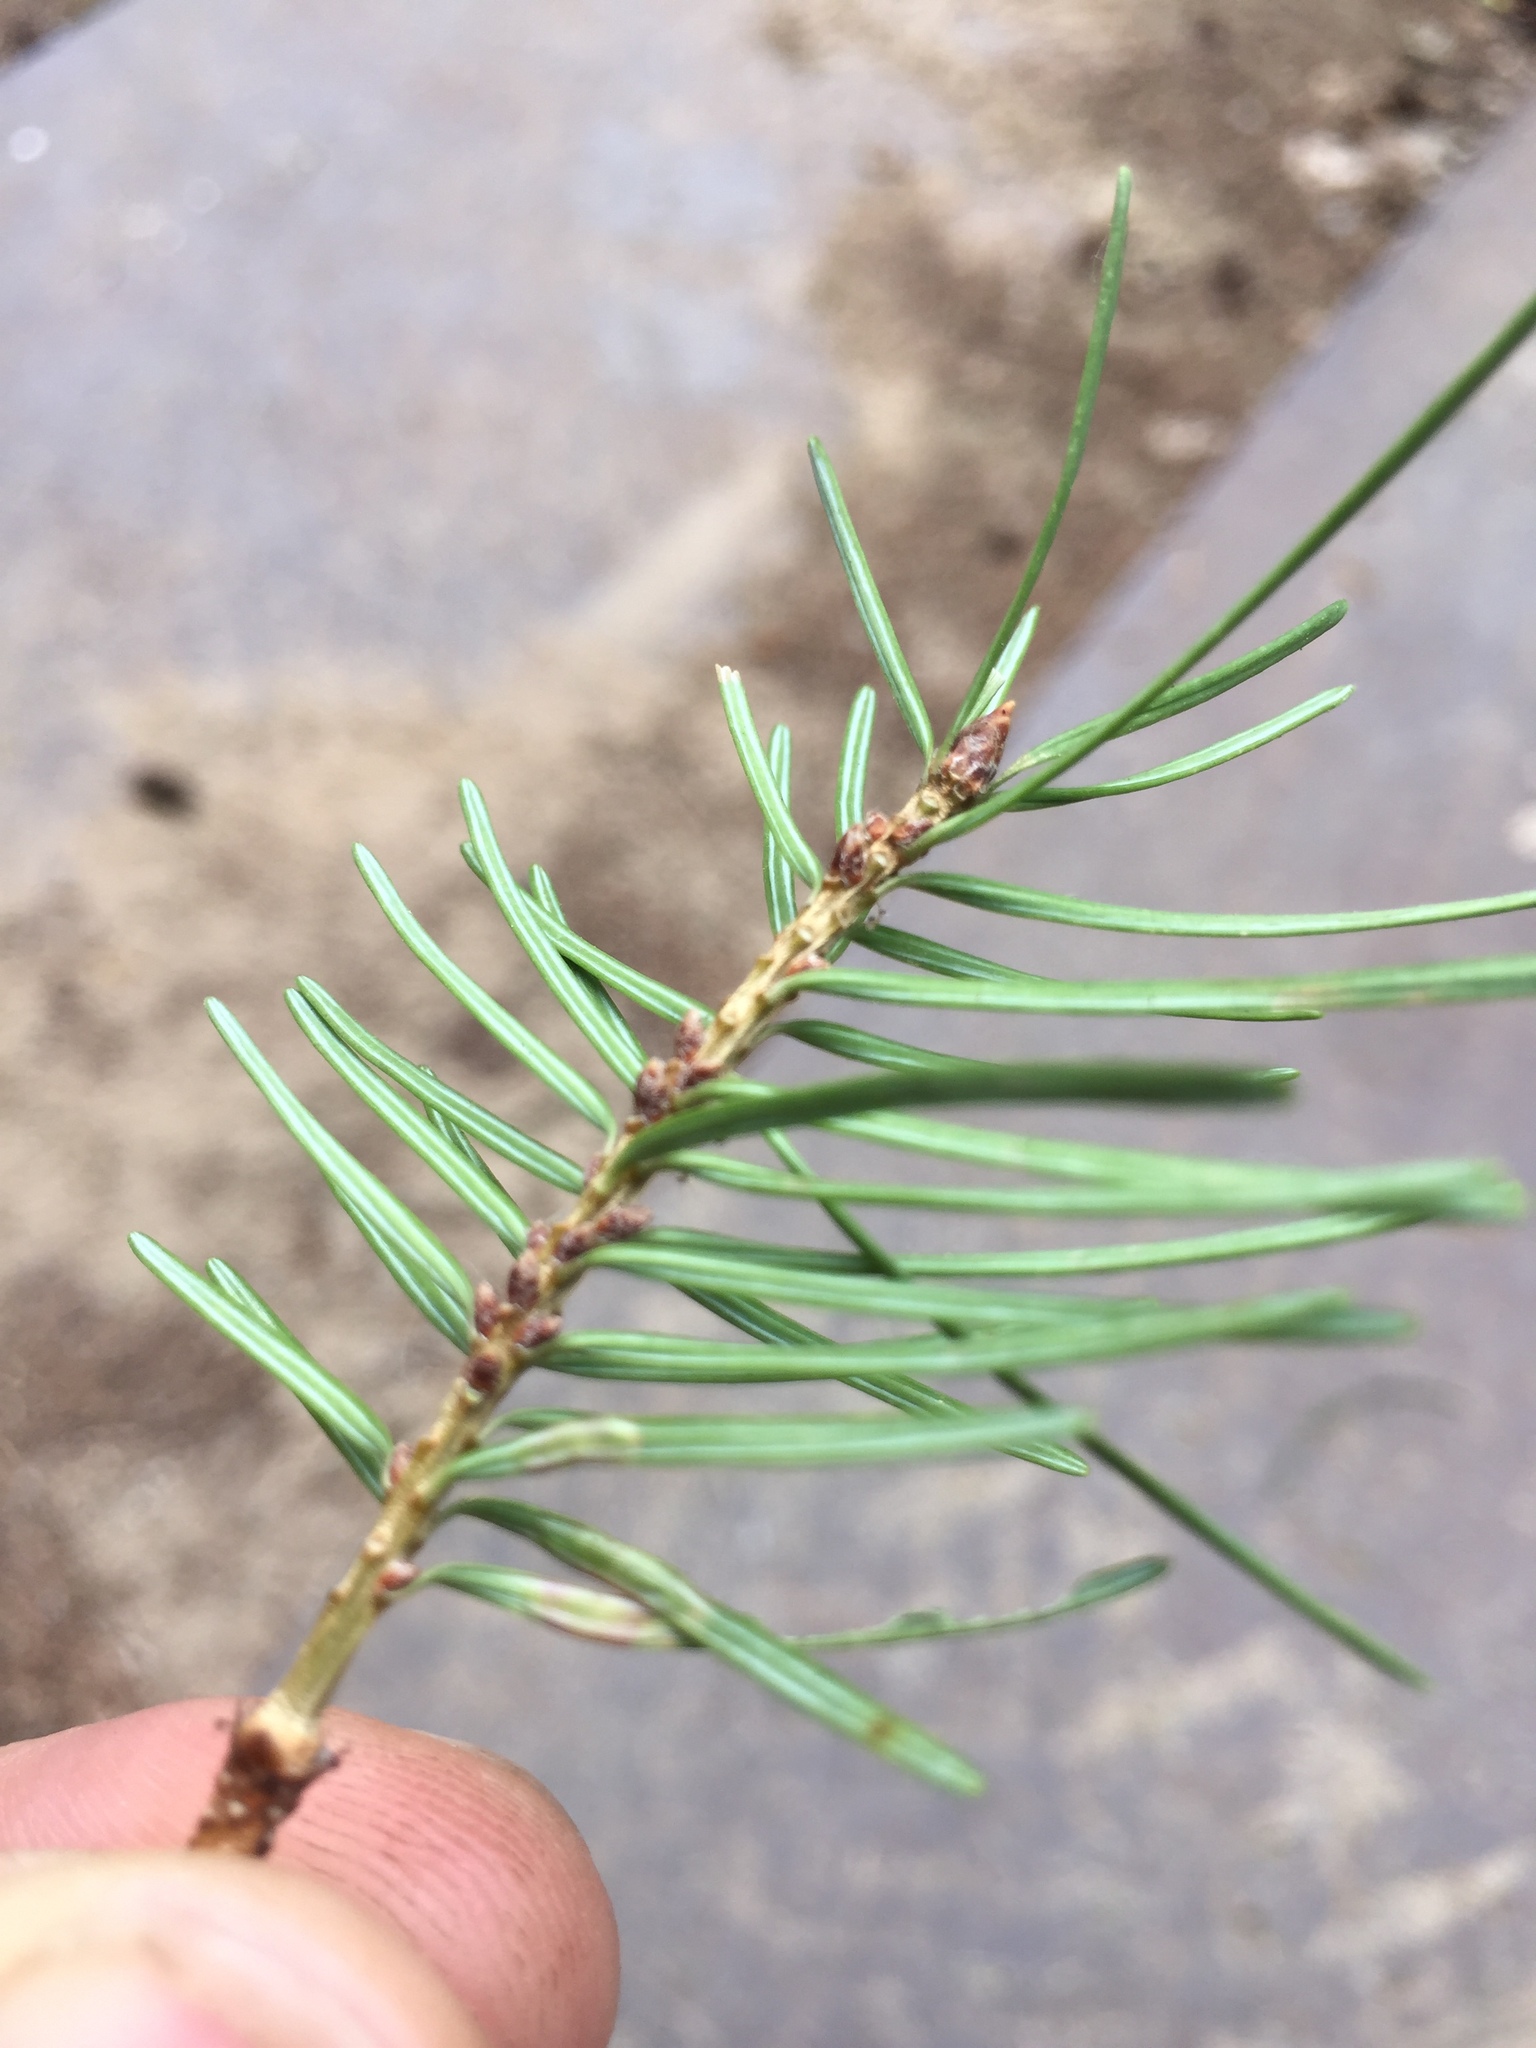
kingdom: Animalia
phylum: Arthropoda
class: Insecta
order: Diptera
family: Cecidomyiidae
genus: Contarinia
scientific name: Contarinia pseudotsugae
